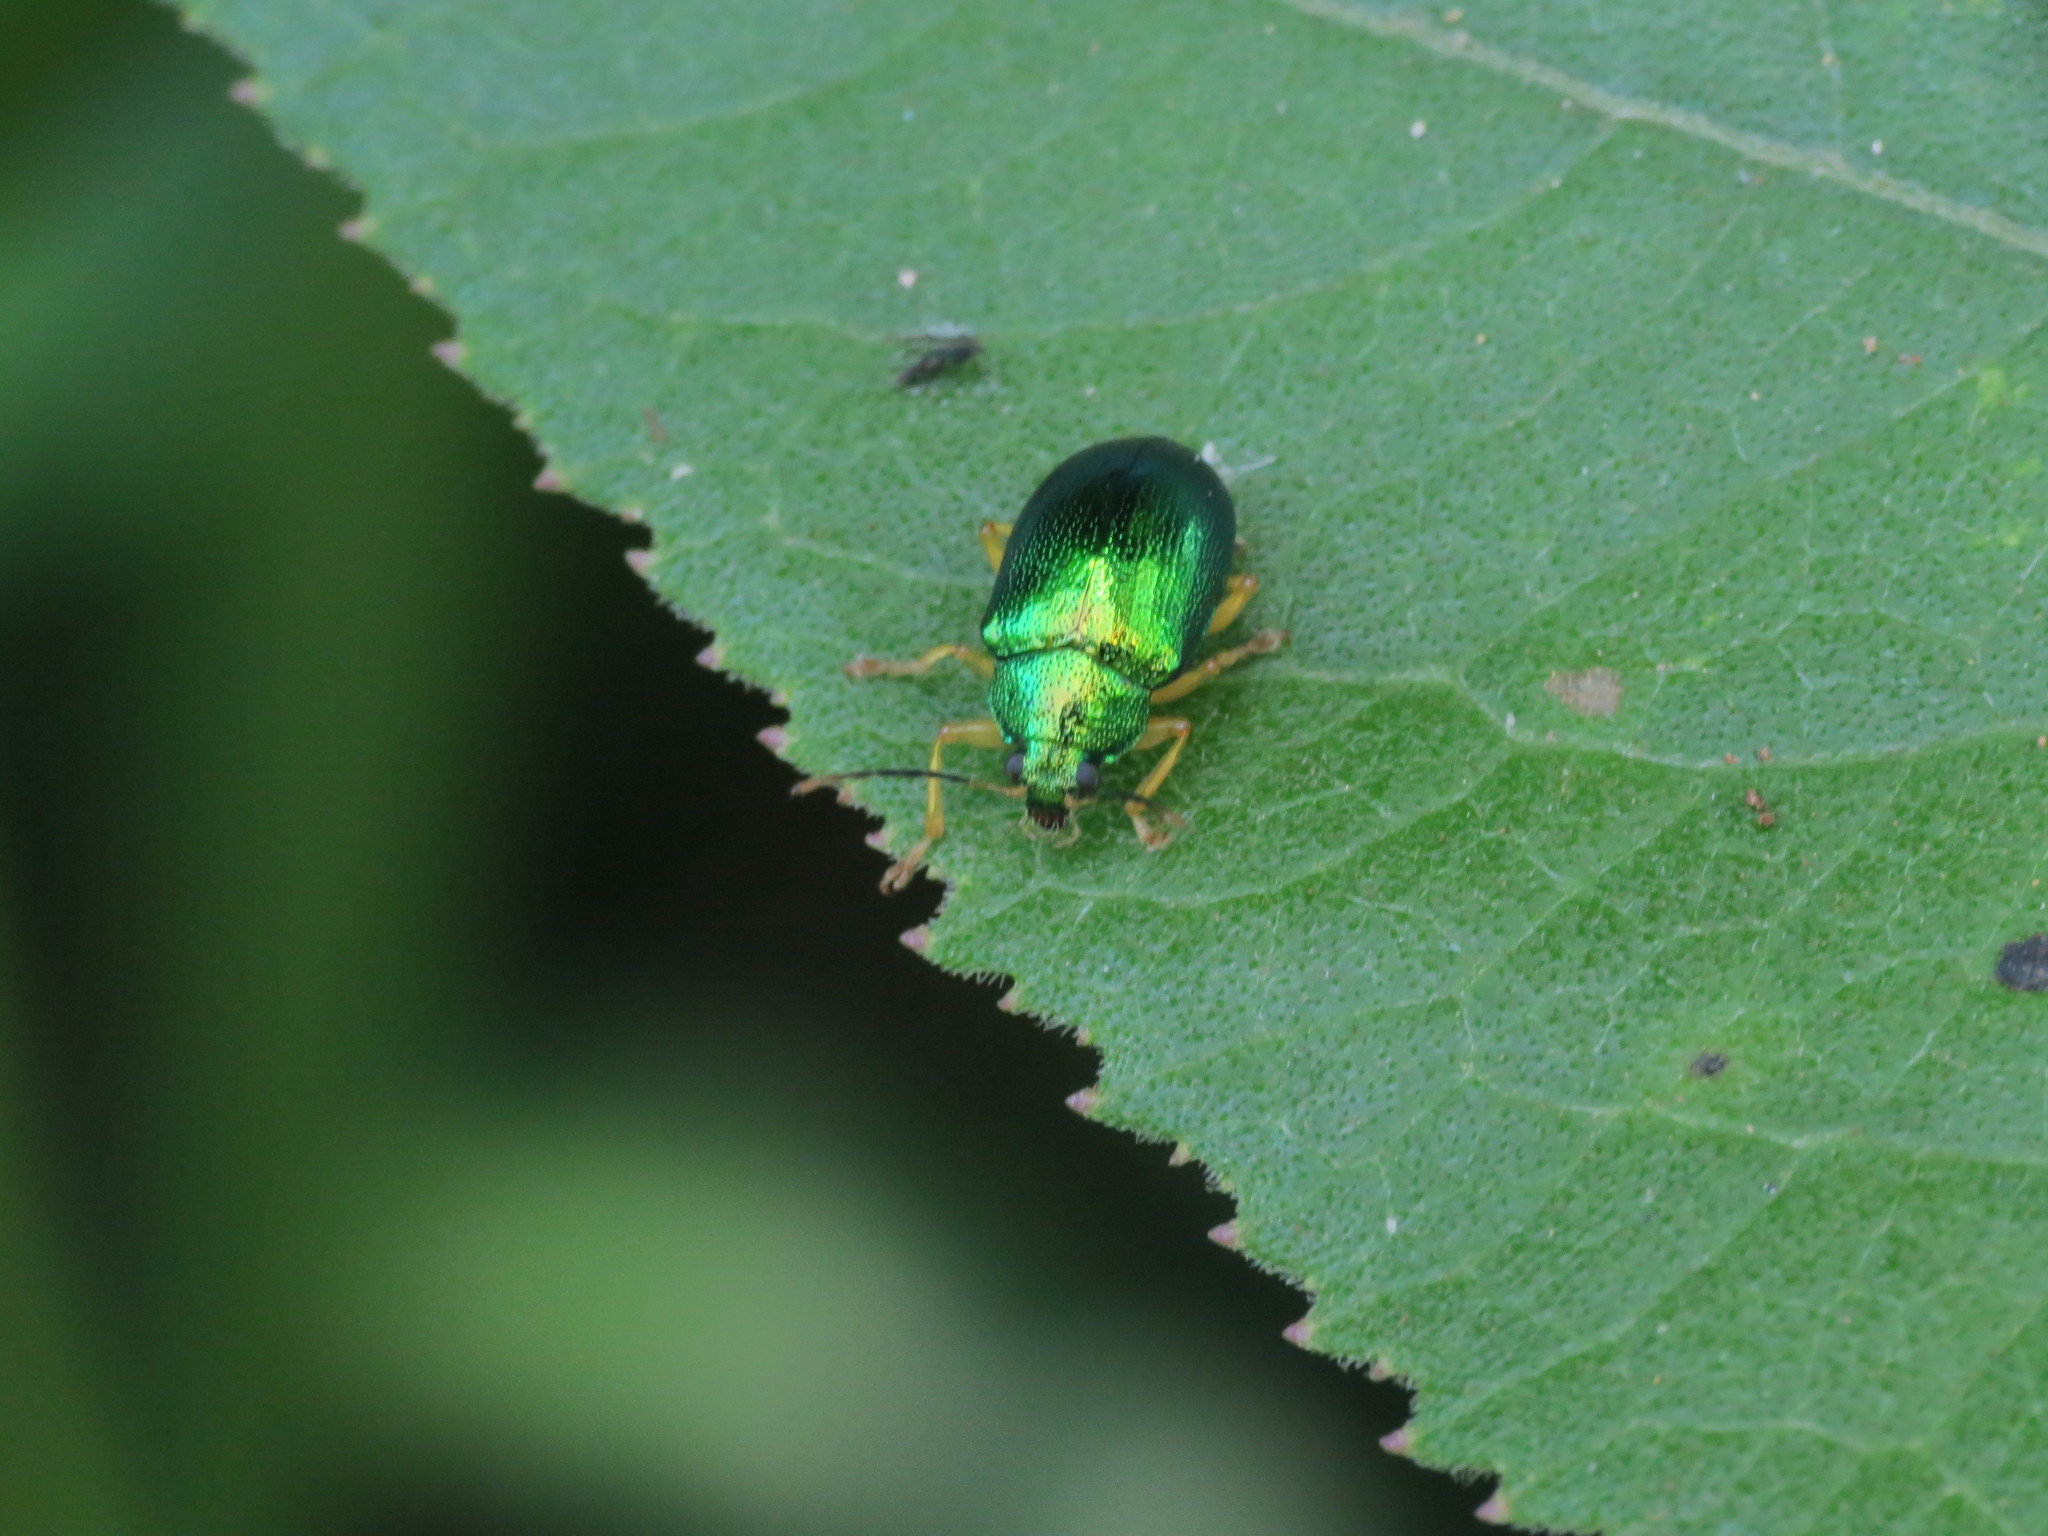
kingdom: Animalia
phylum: Arthropoda
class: Insecta
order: Coleoptera
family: Chrysomelidae
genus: Colaspis
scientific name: Colaspis
